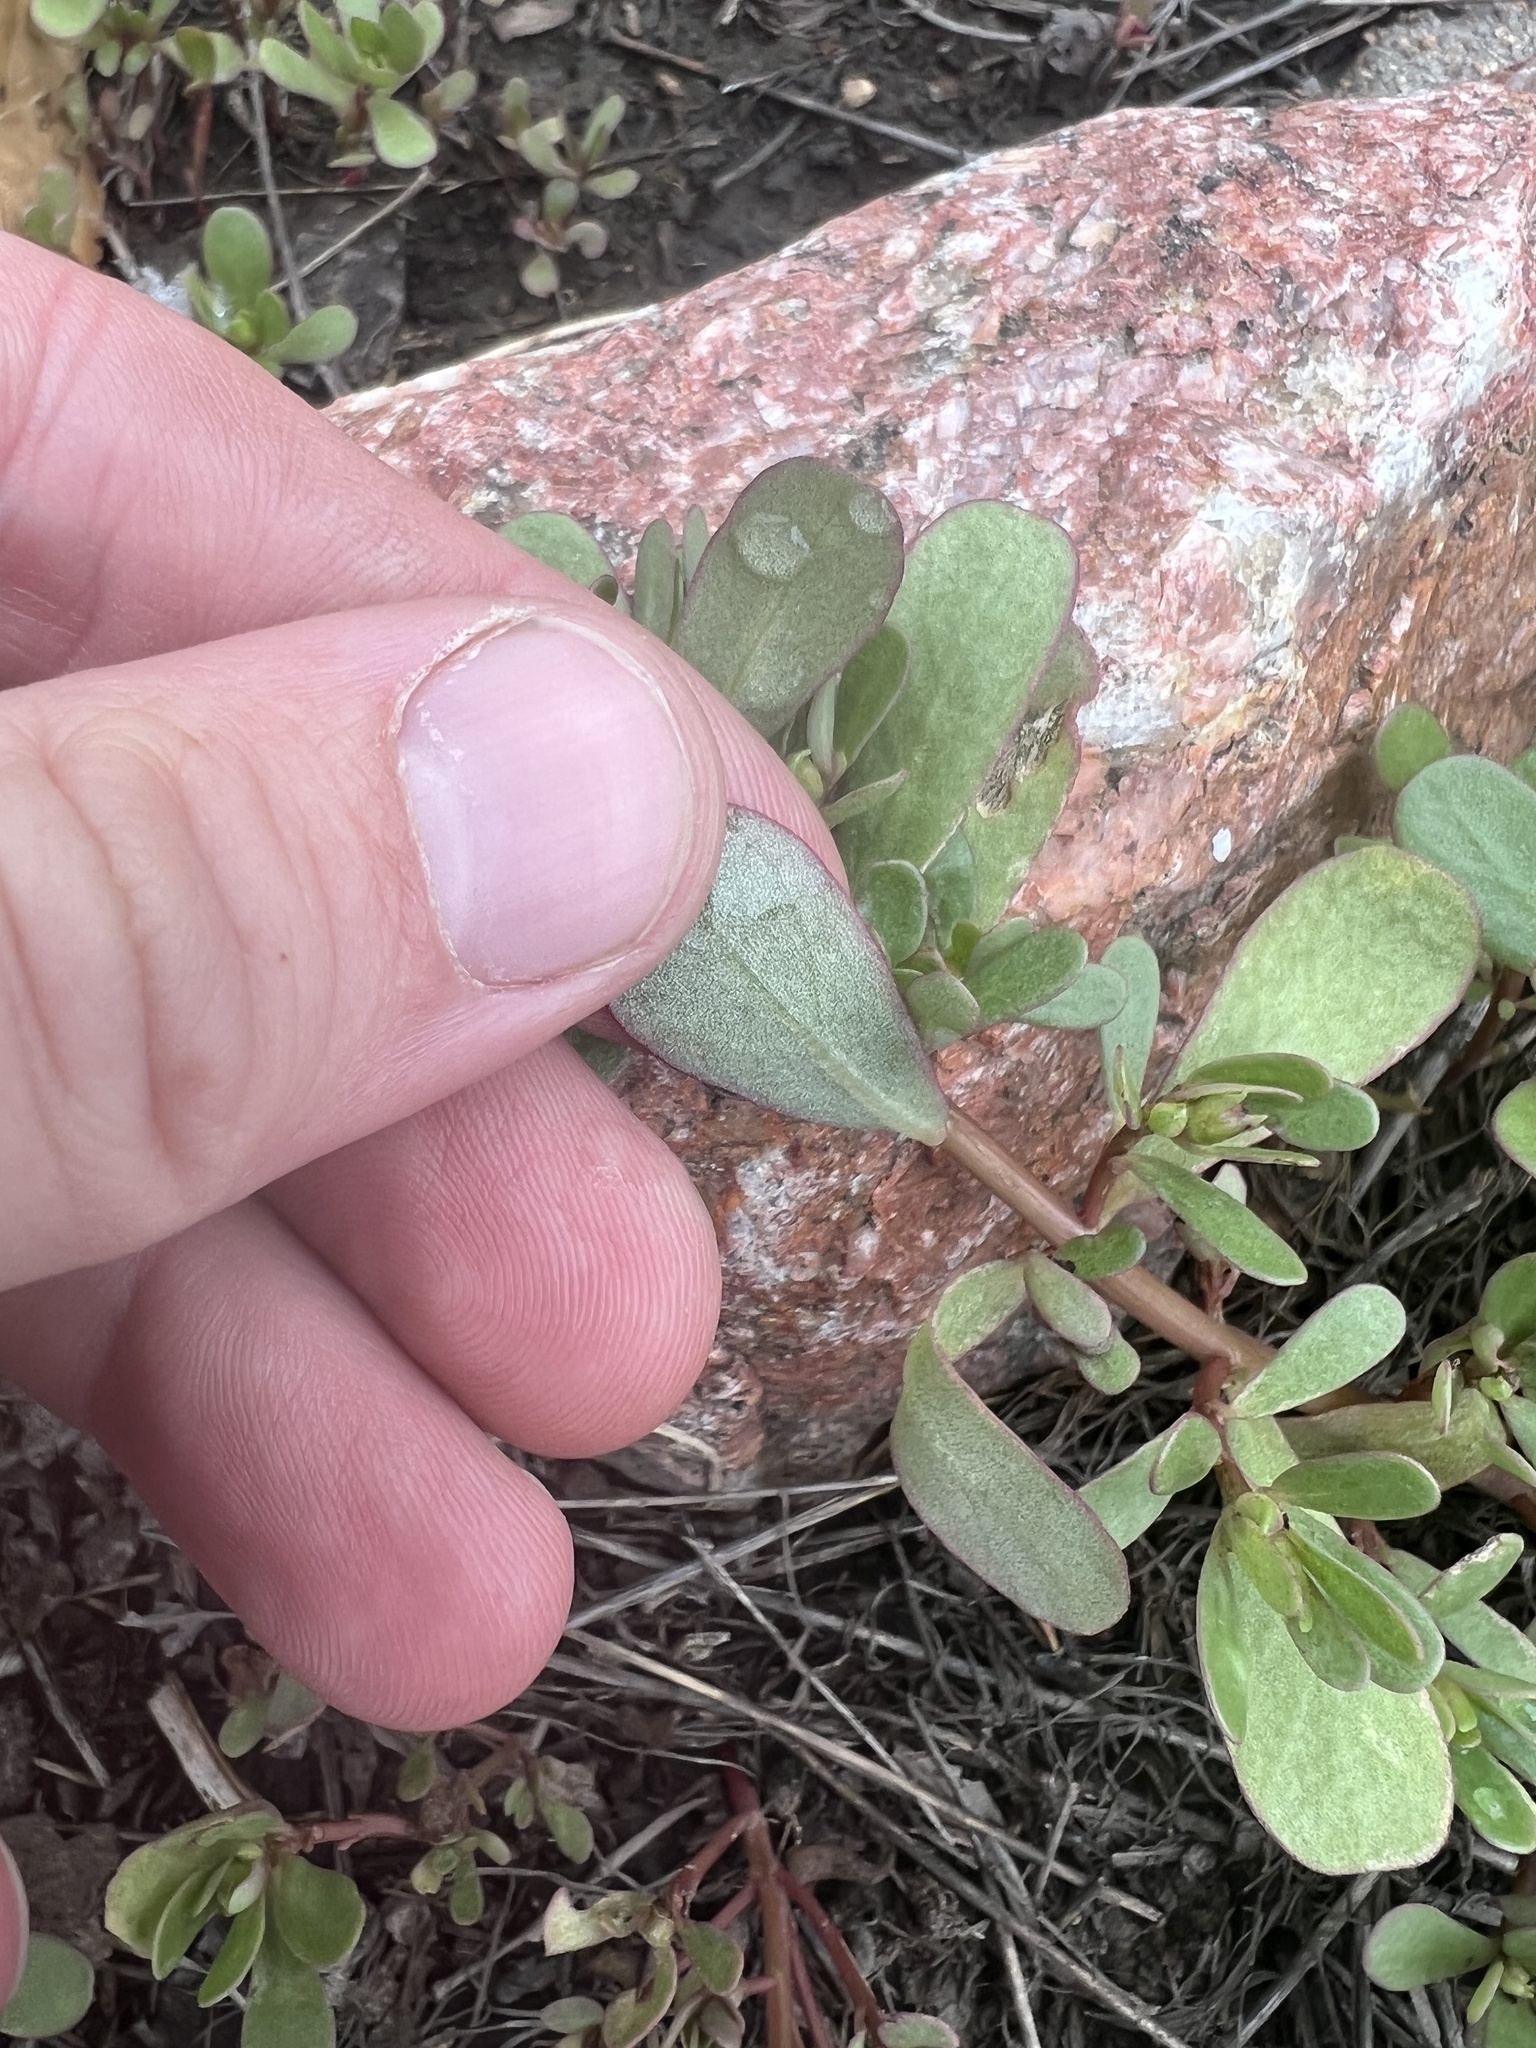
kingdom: Plantae
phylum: Tracheophyta
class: Magnoliopsida
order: Caryophyllales
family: Portulacaceae
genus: Portulaca
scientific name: Portulaca oleracea
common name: Common purslane
